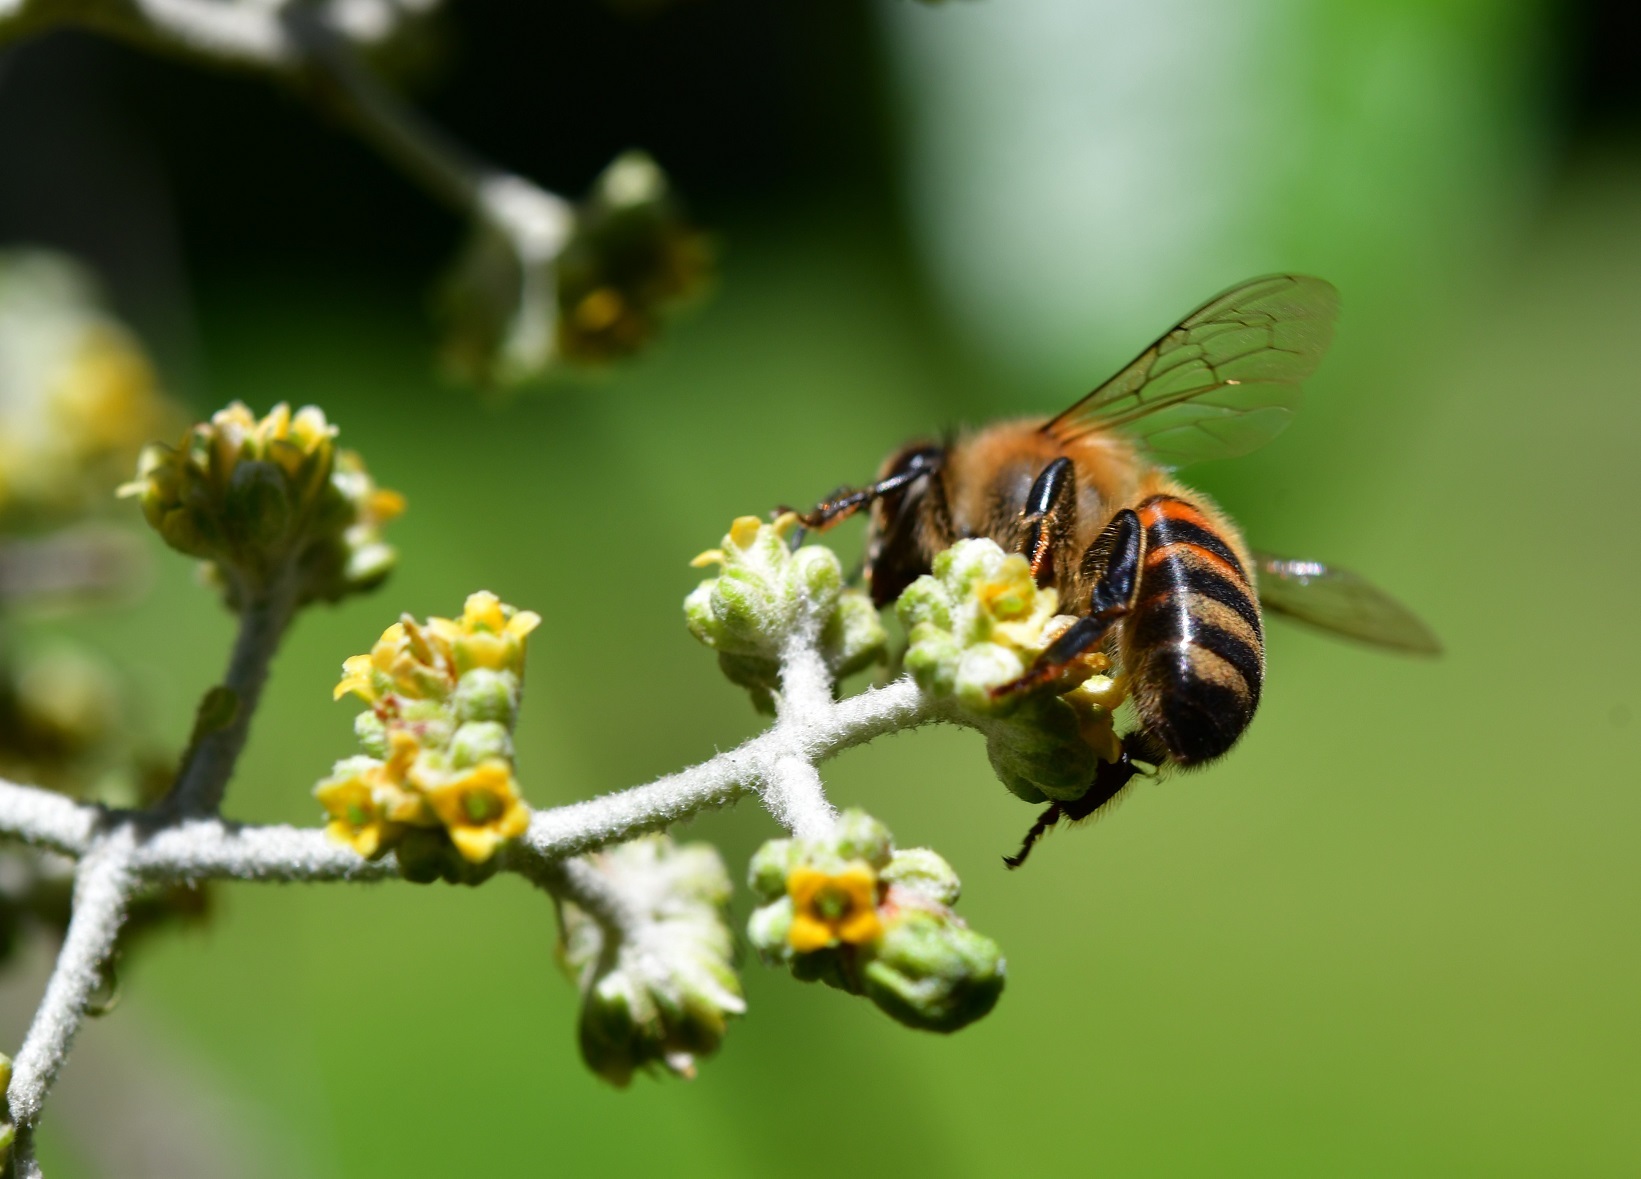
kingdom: Animalia
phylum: Arthropoda
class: Insecta
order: Hymenoptera
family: Apidae
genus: Apis
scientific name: Apis mellifera
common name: Honey bee
